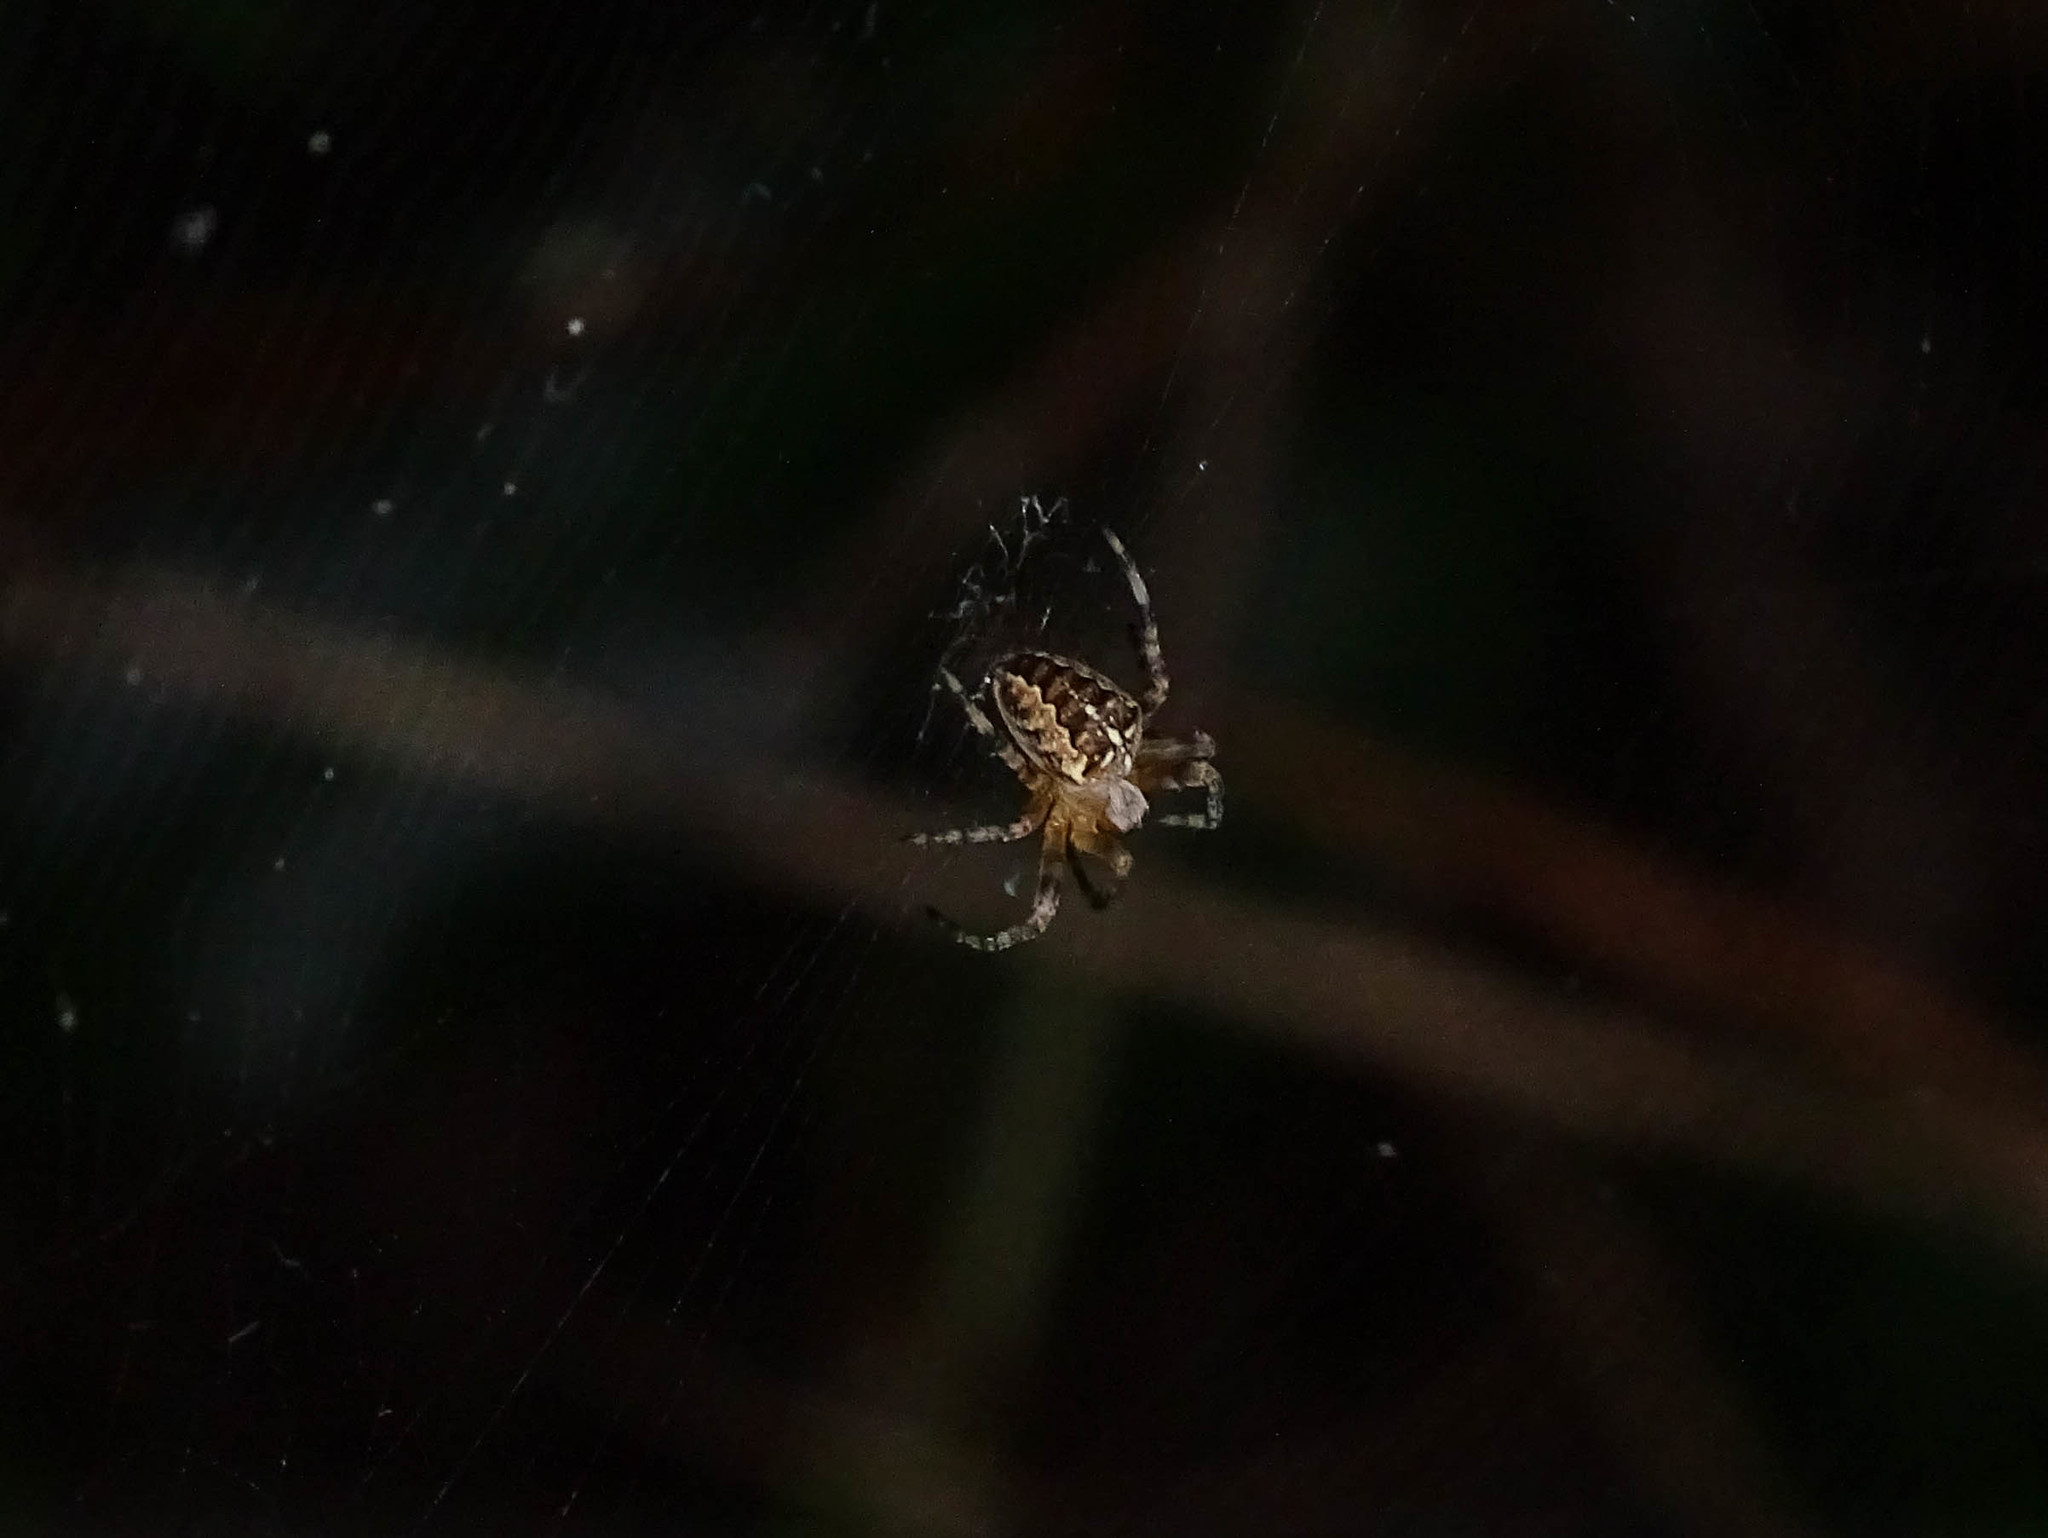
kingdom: Animalia
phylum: Arthropoda
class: Arachnida
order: Araneae
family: Araneidae
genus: Araneus
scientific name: Araneus diadematus
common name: Cross orbweaver
